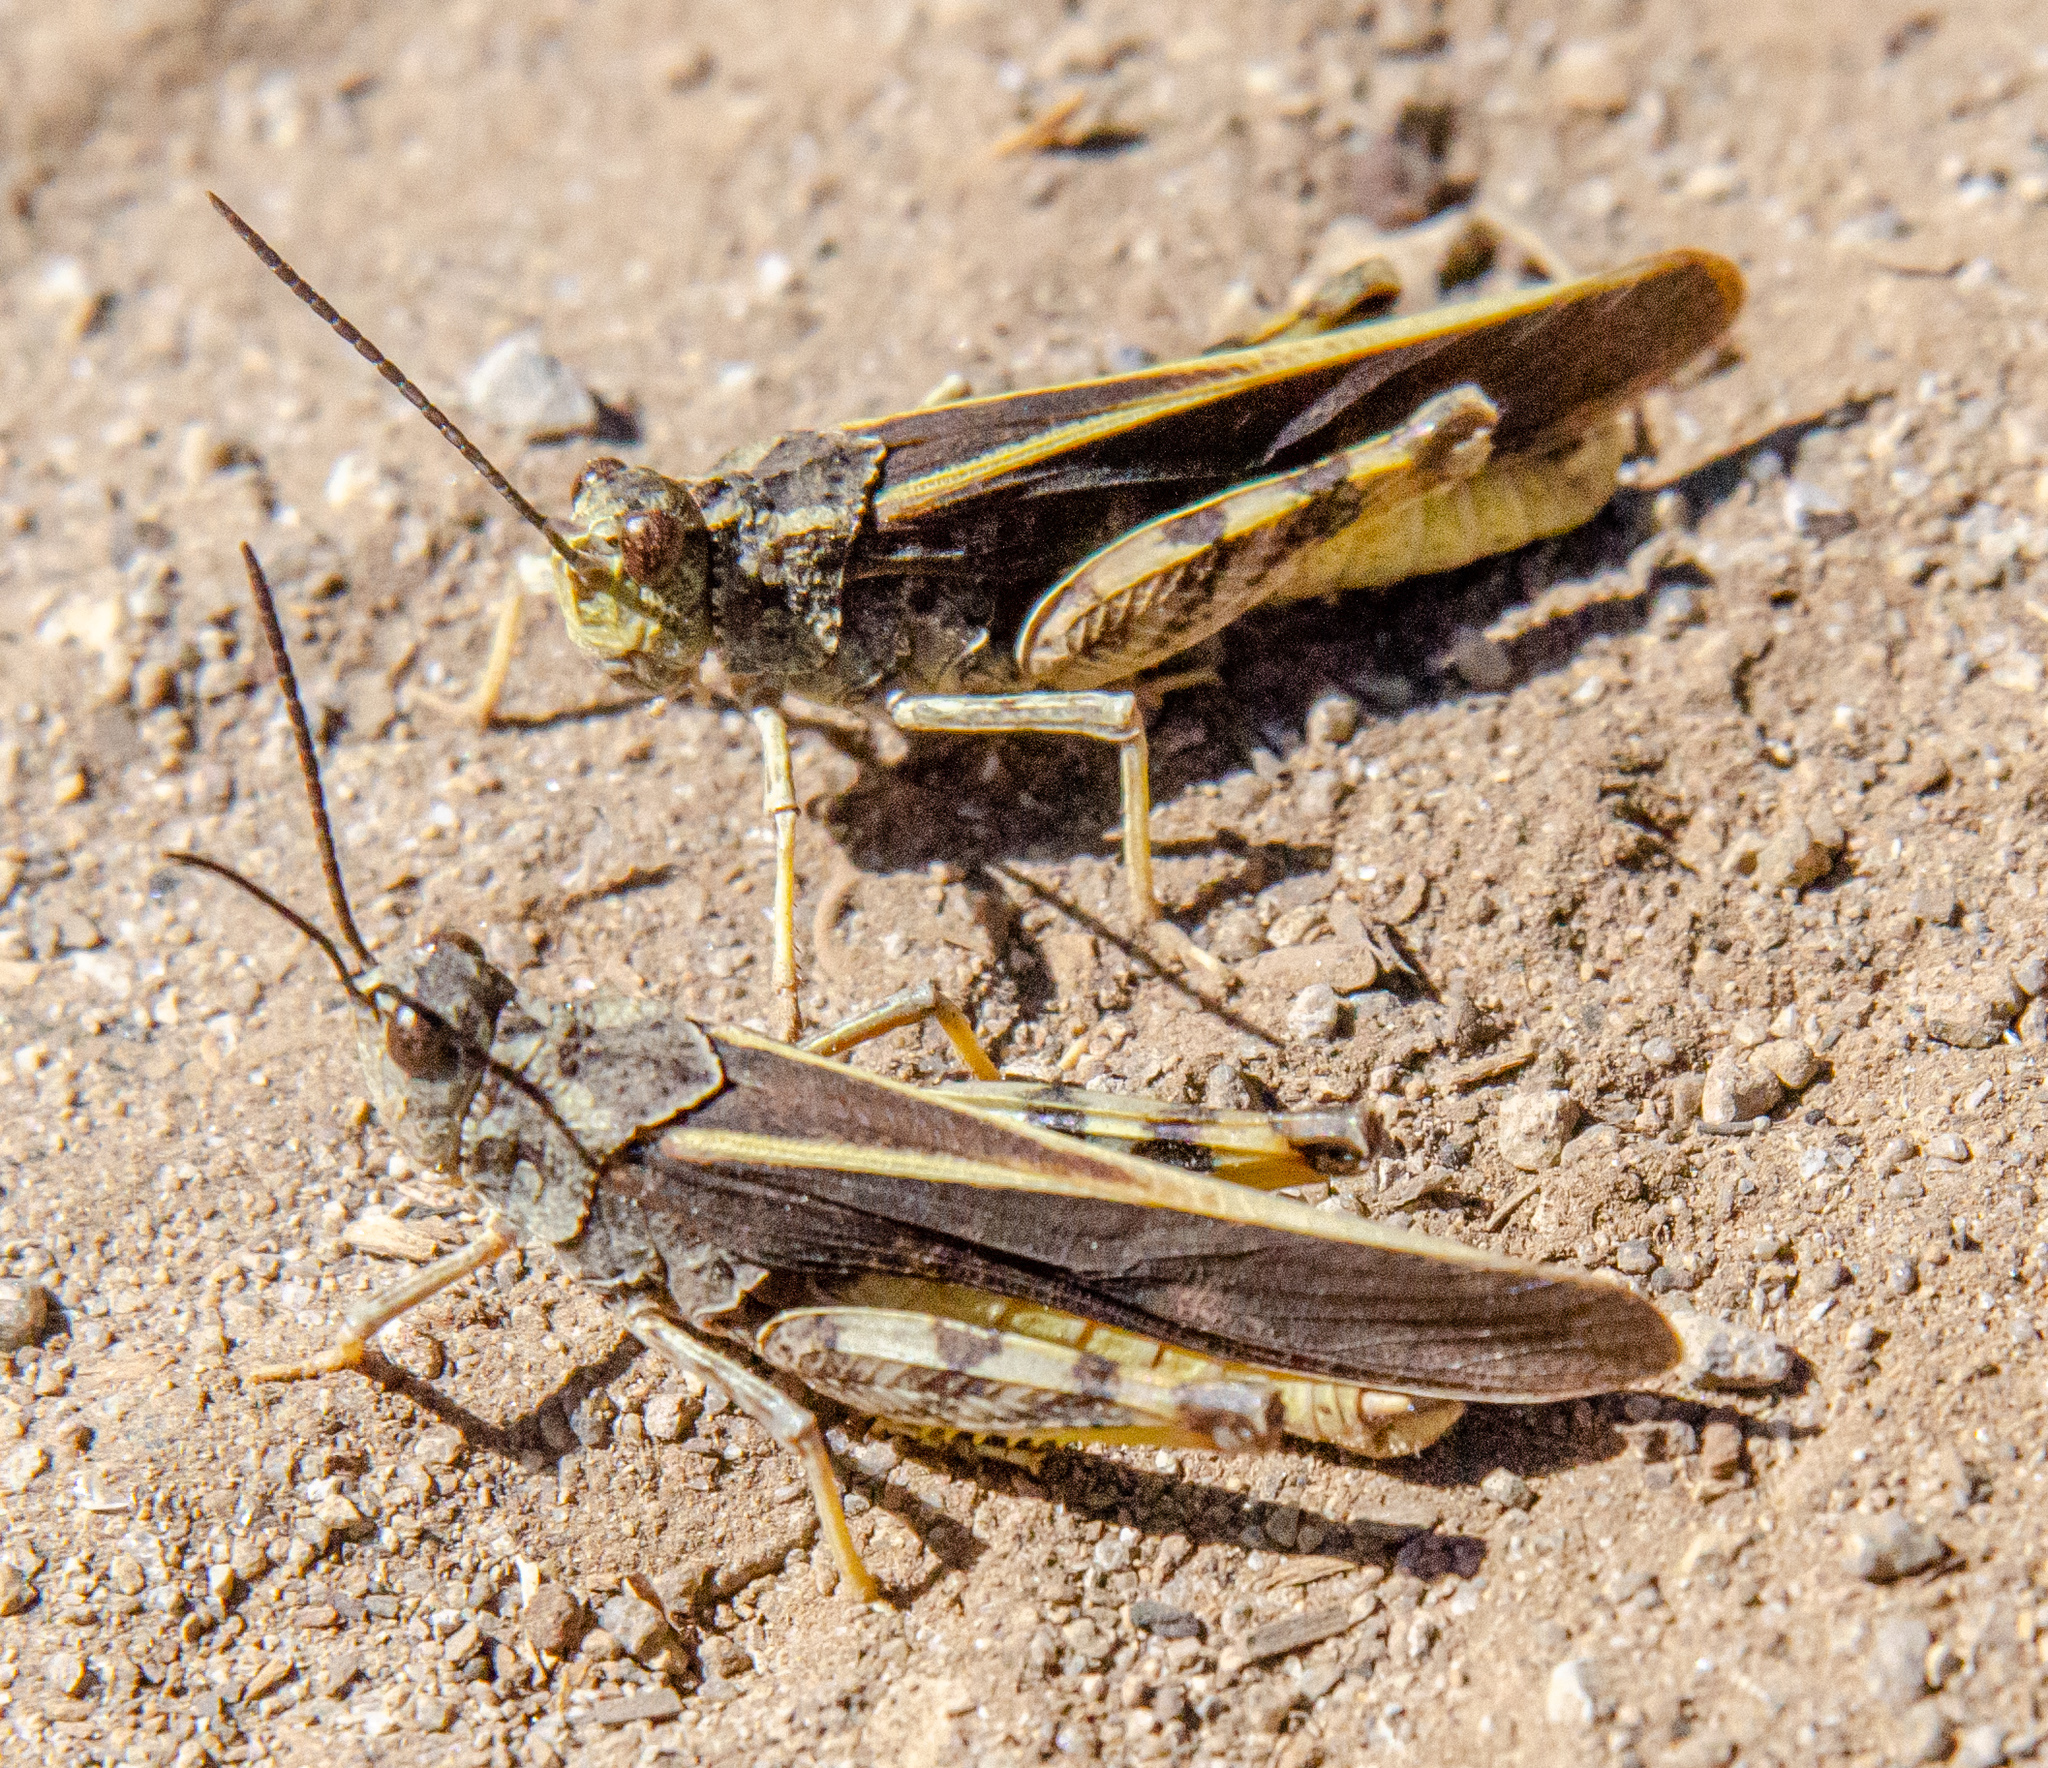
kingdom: Animalia
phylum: Arthropoda
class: Insecta
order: Orthoptera
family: Acrididae
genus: Cratypedes
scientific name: Cratypedes lateritius
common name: Nevada red-winged grasshopper
